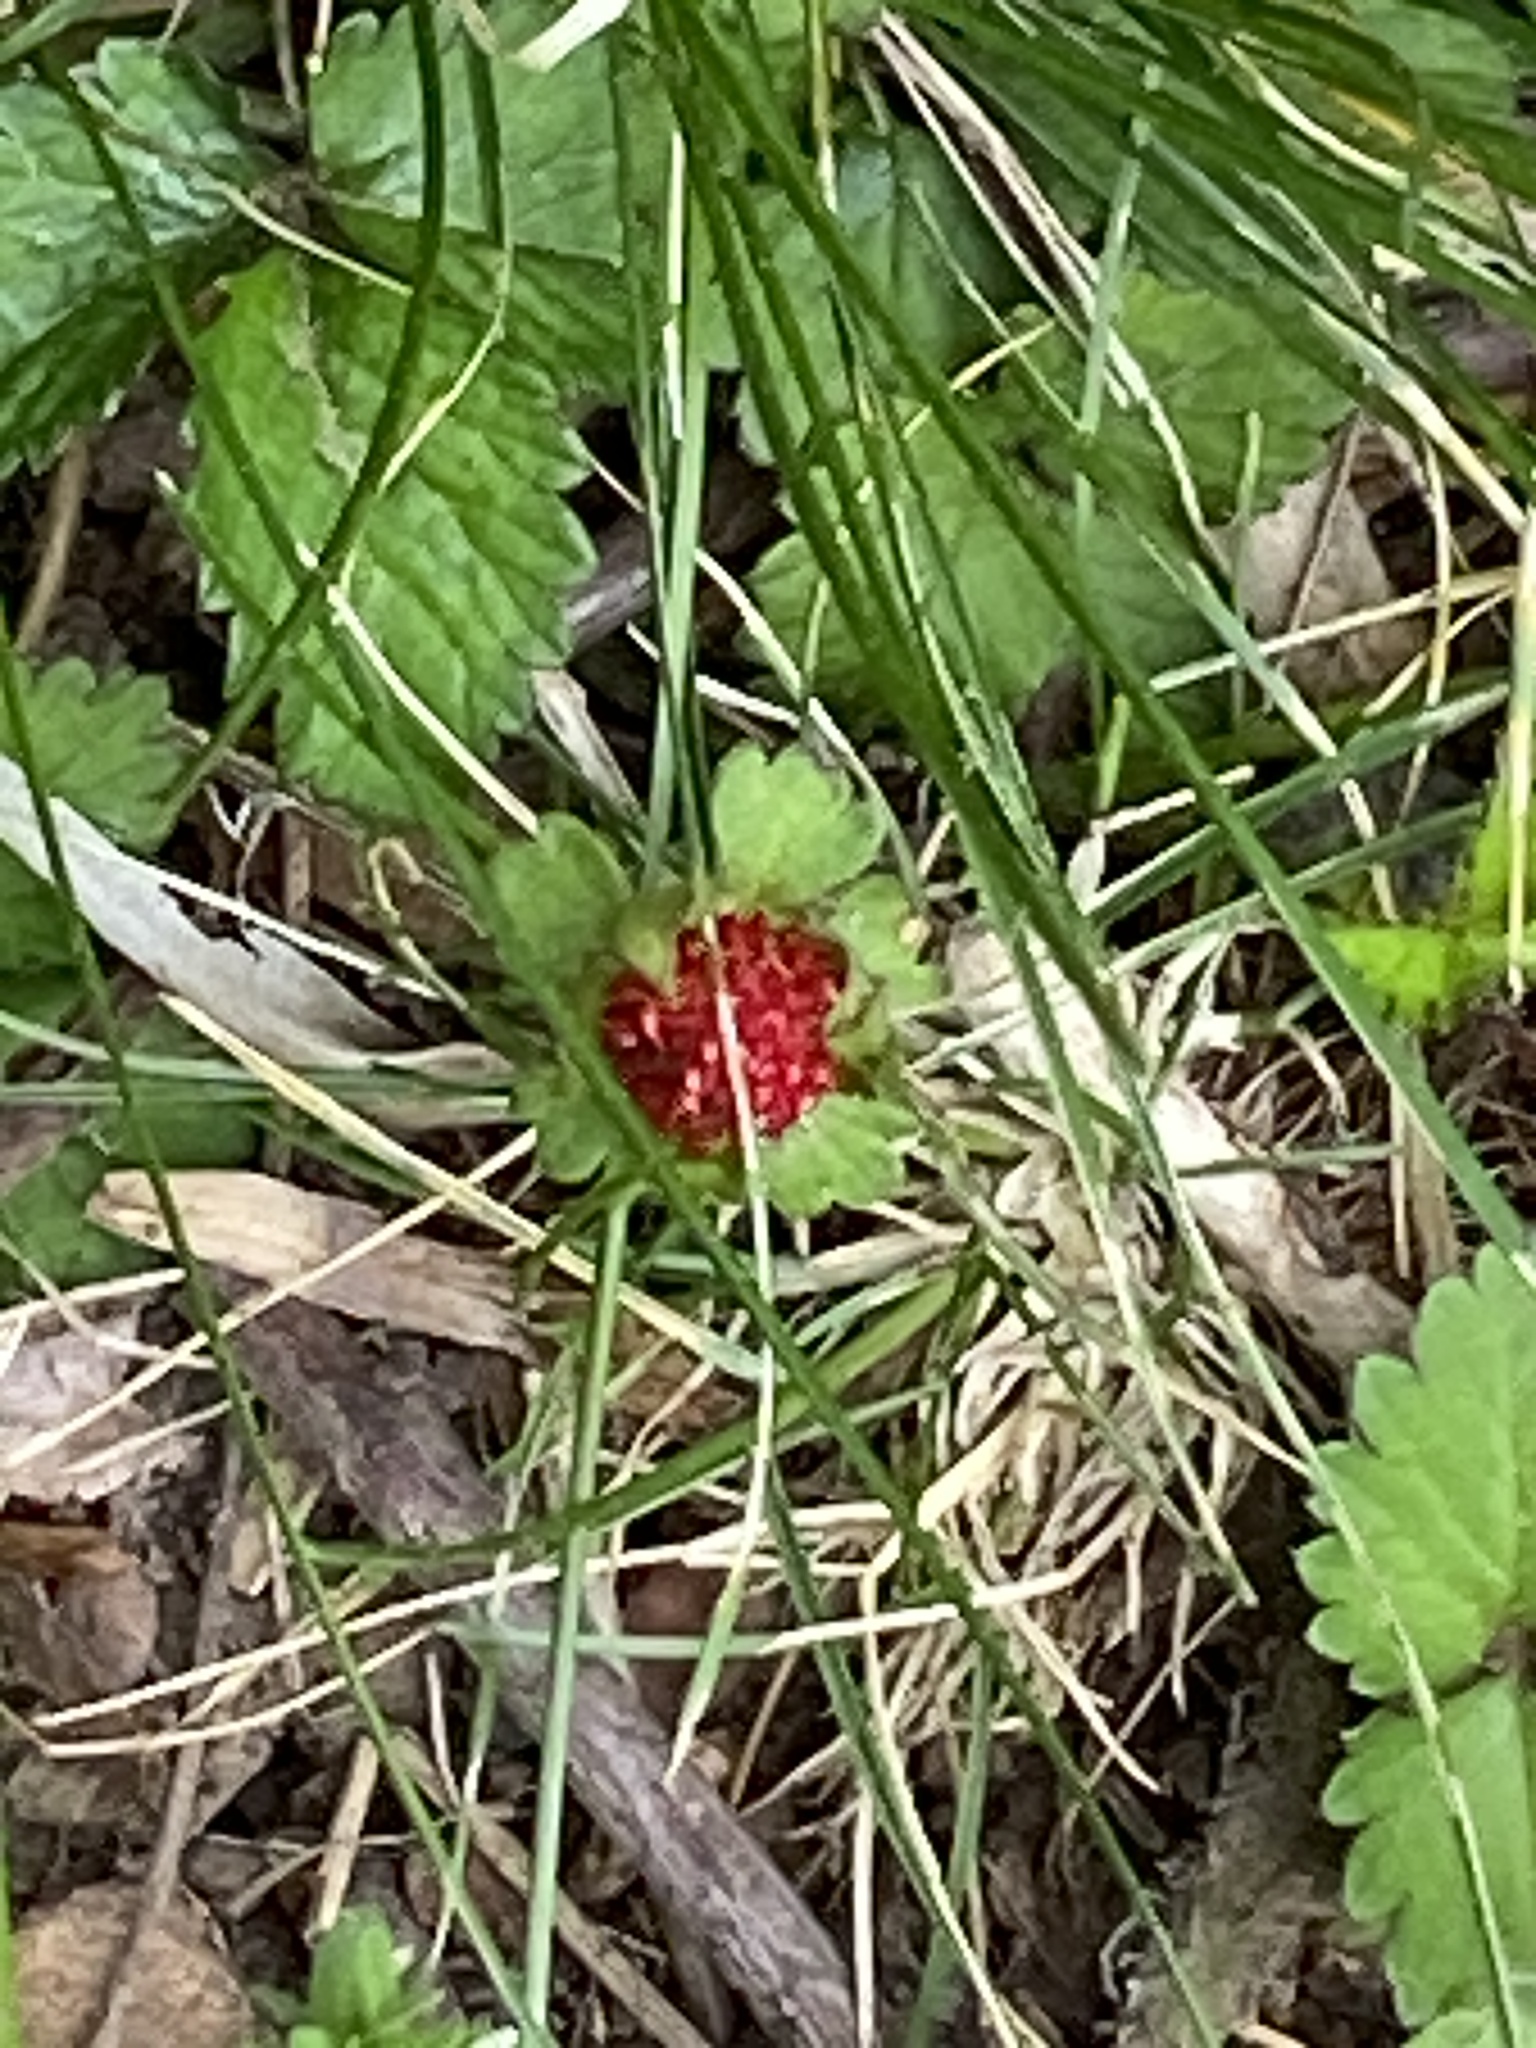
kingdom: Plantae
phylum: Tracheophyta
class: Magnoliopsida
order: Rosales
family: Rosaceae
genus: Potentilla
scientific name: Potentilla indica
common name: Yellow-flowered strawberry
